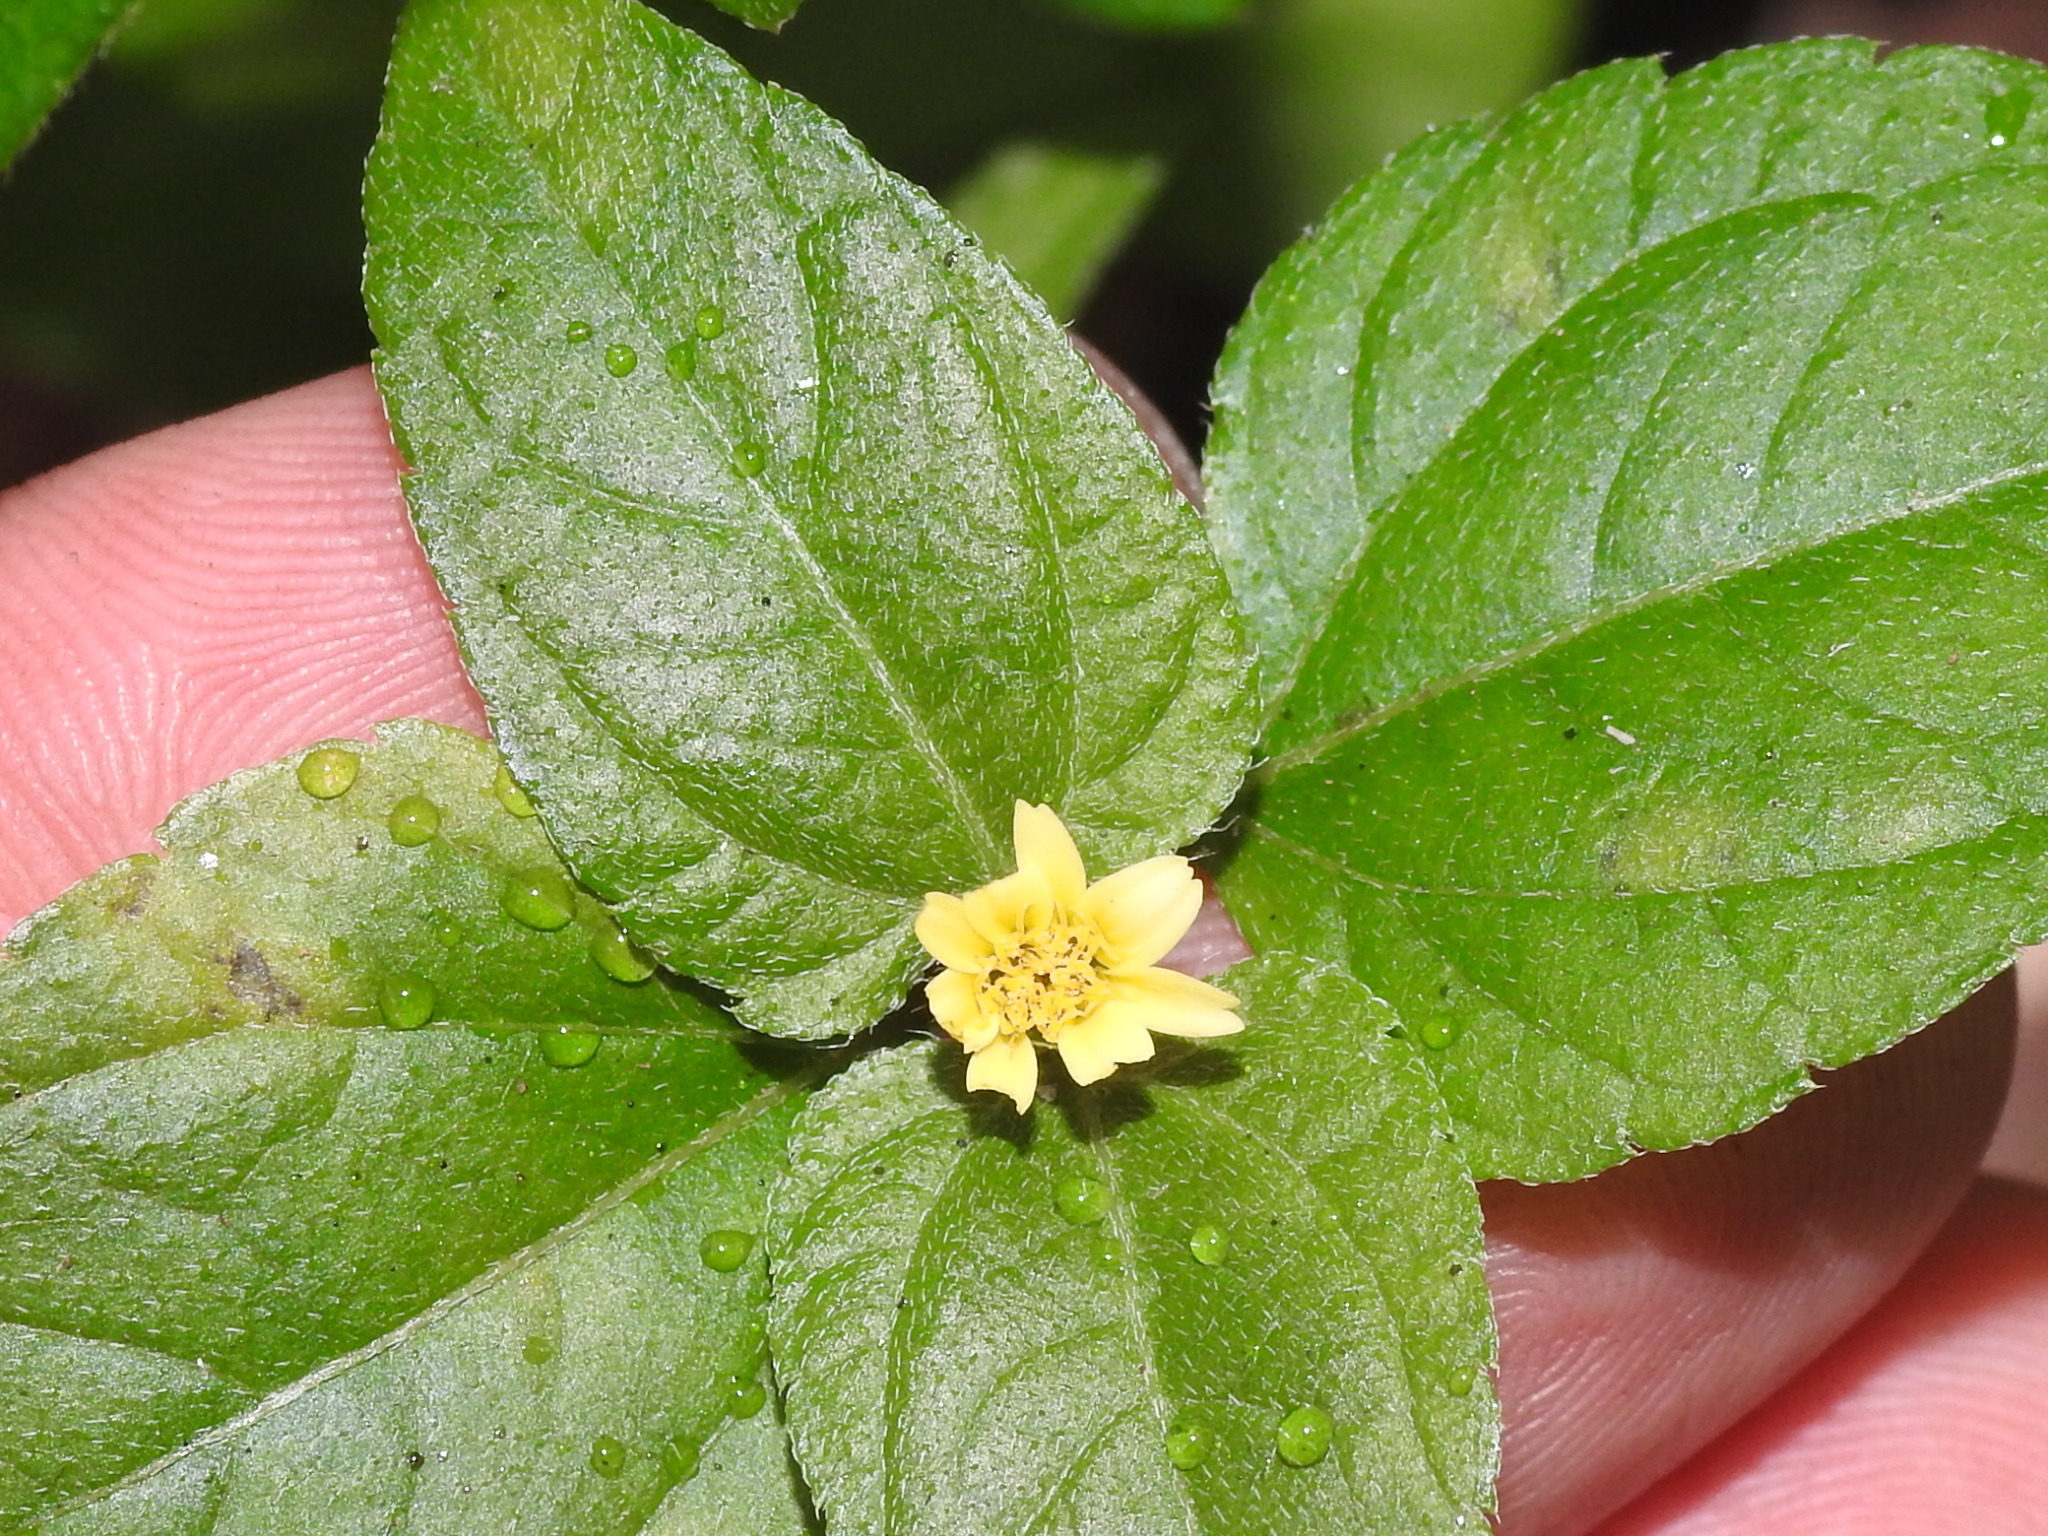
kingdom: Plantae
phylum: Tracheophyta
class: Magnoliopsida
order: Asterales
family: Asteraceae
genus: Calyptocarpus
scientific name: Calyptocarpus vialis
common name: Straggler daisy
